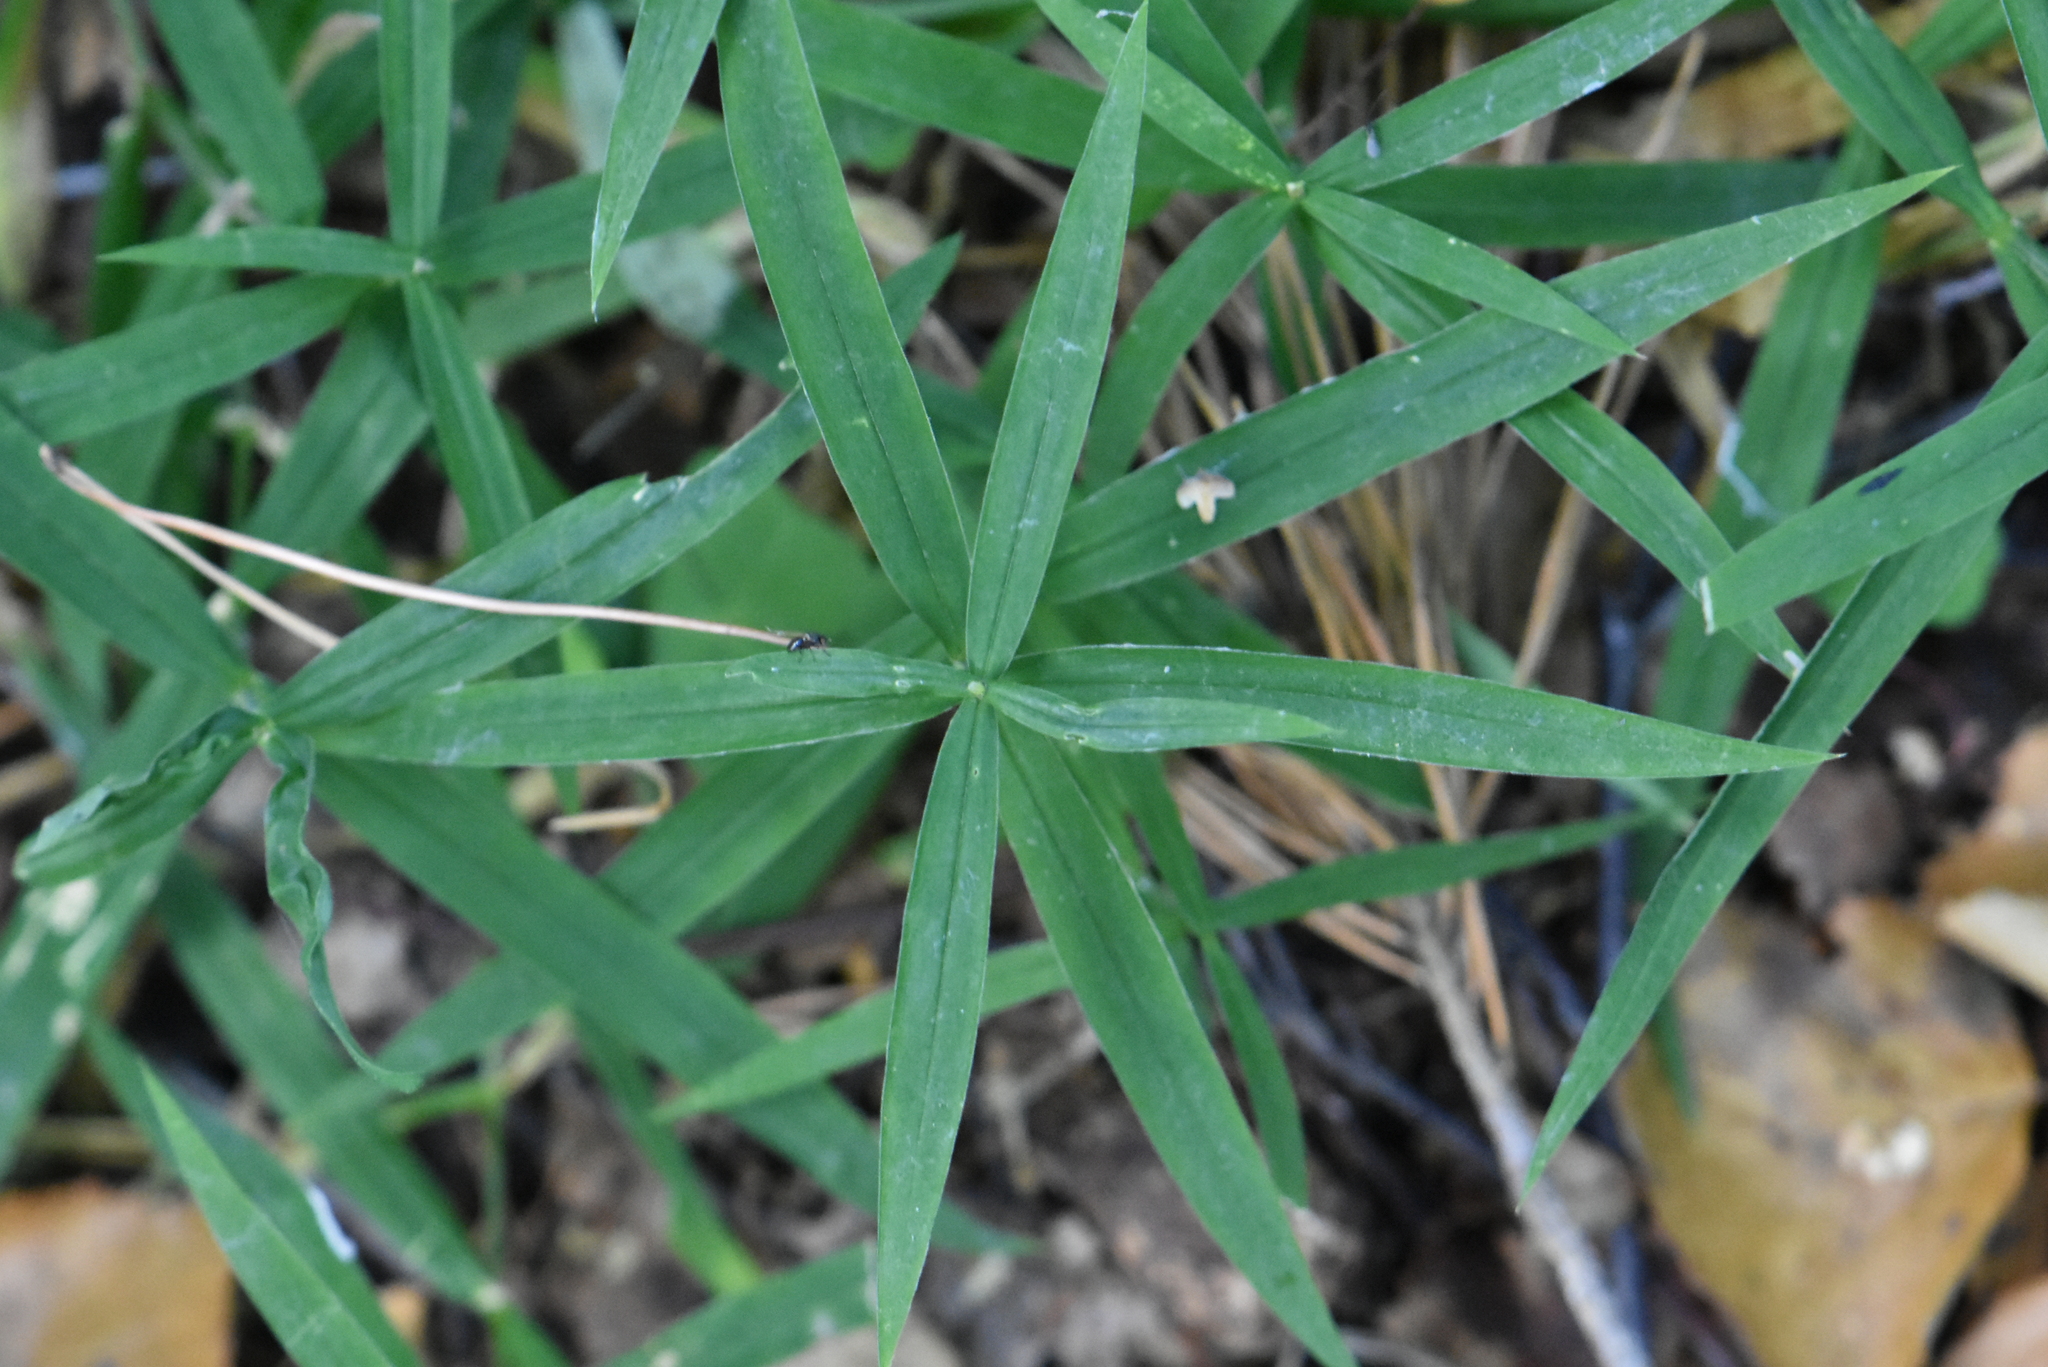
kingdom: Plantae
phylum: Tracheophyta
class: Magnoliopsida
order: Caryophyllales
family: Caryophyllaceae
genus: Rabelera
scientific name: Rabelera holostea
